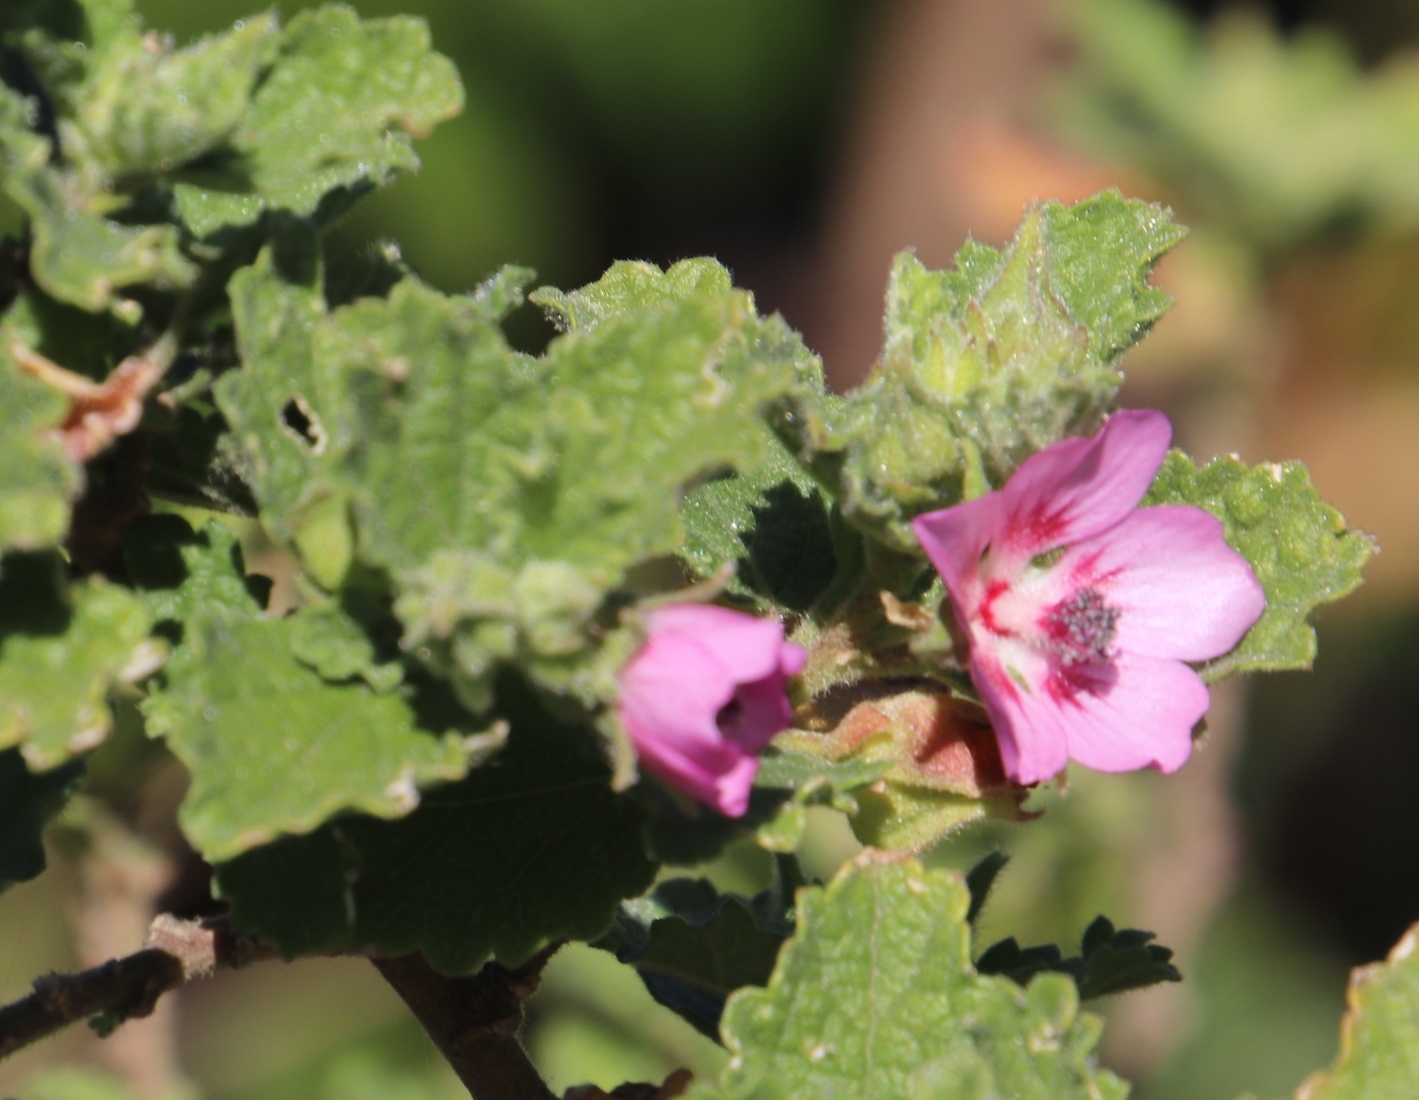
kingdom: Plantae
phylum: Tracheophyta
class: Magnoliopsida
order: Malvales
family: Malvaceae
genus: Anisodontea
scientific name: Anisodontea scabrosa
